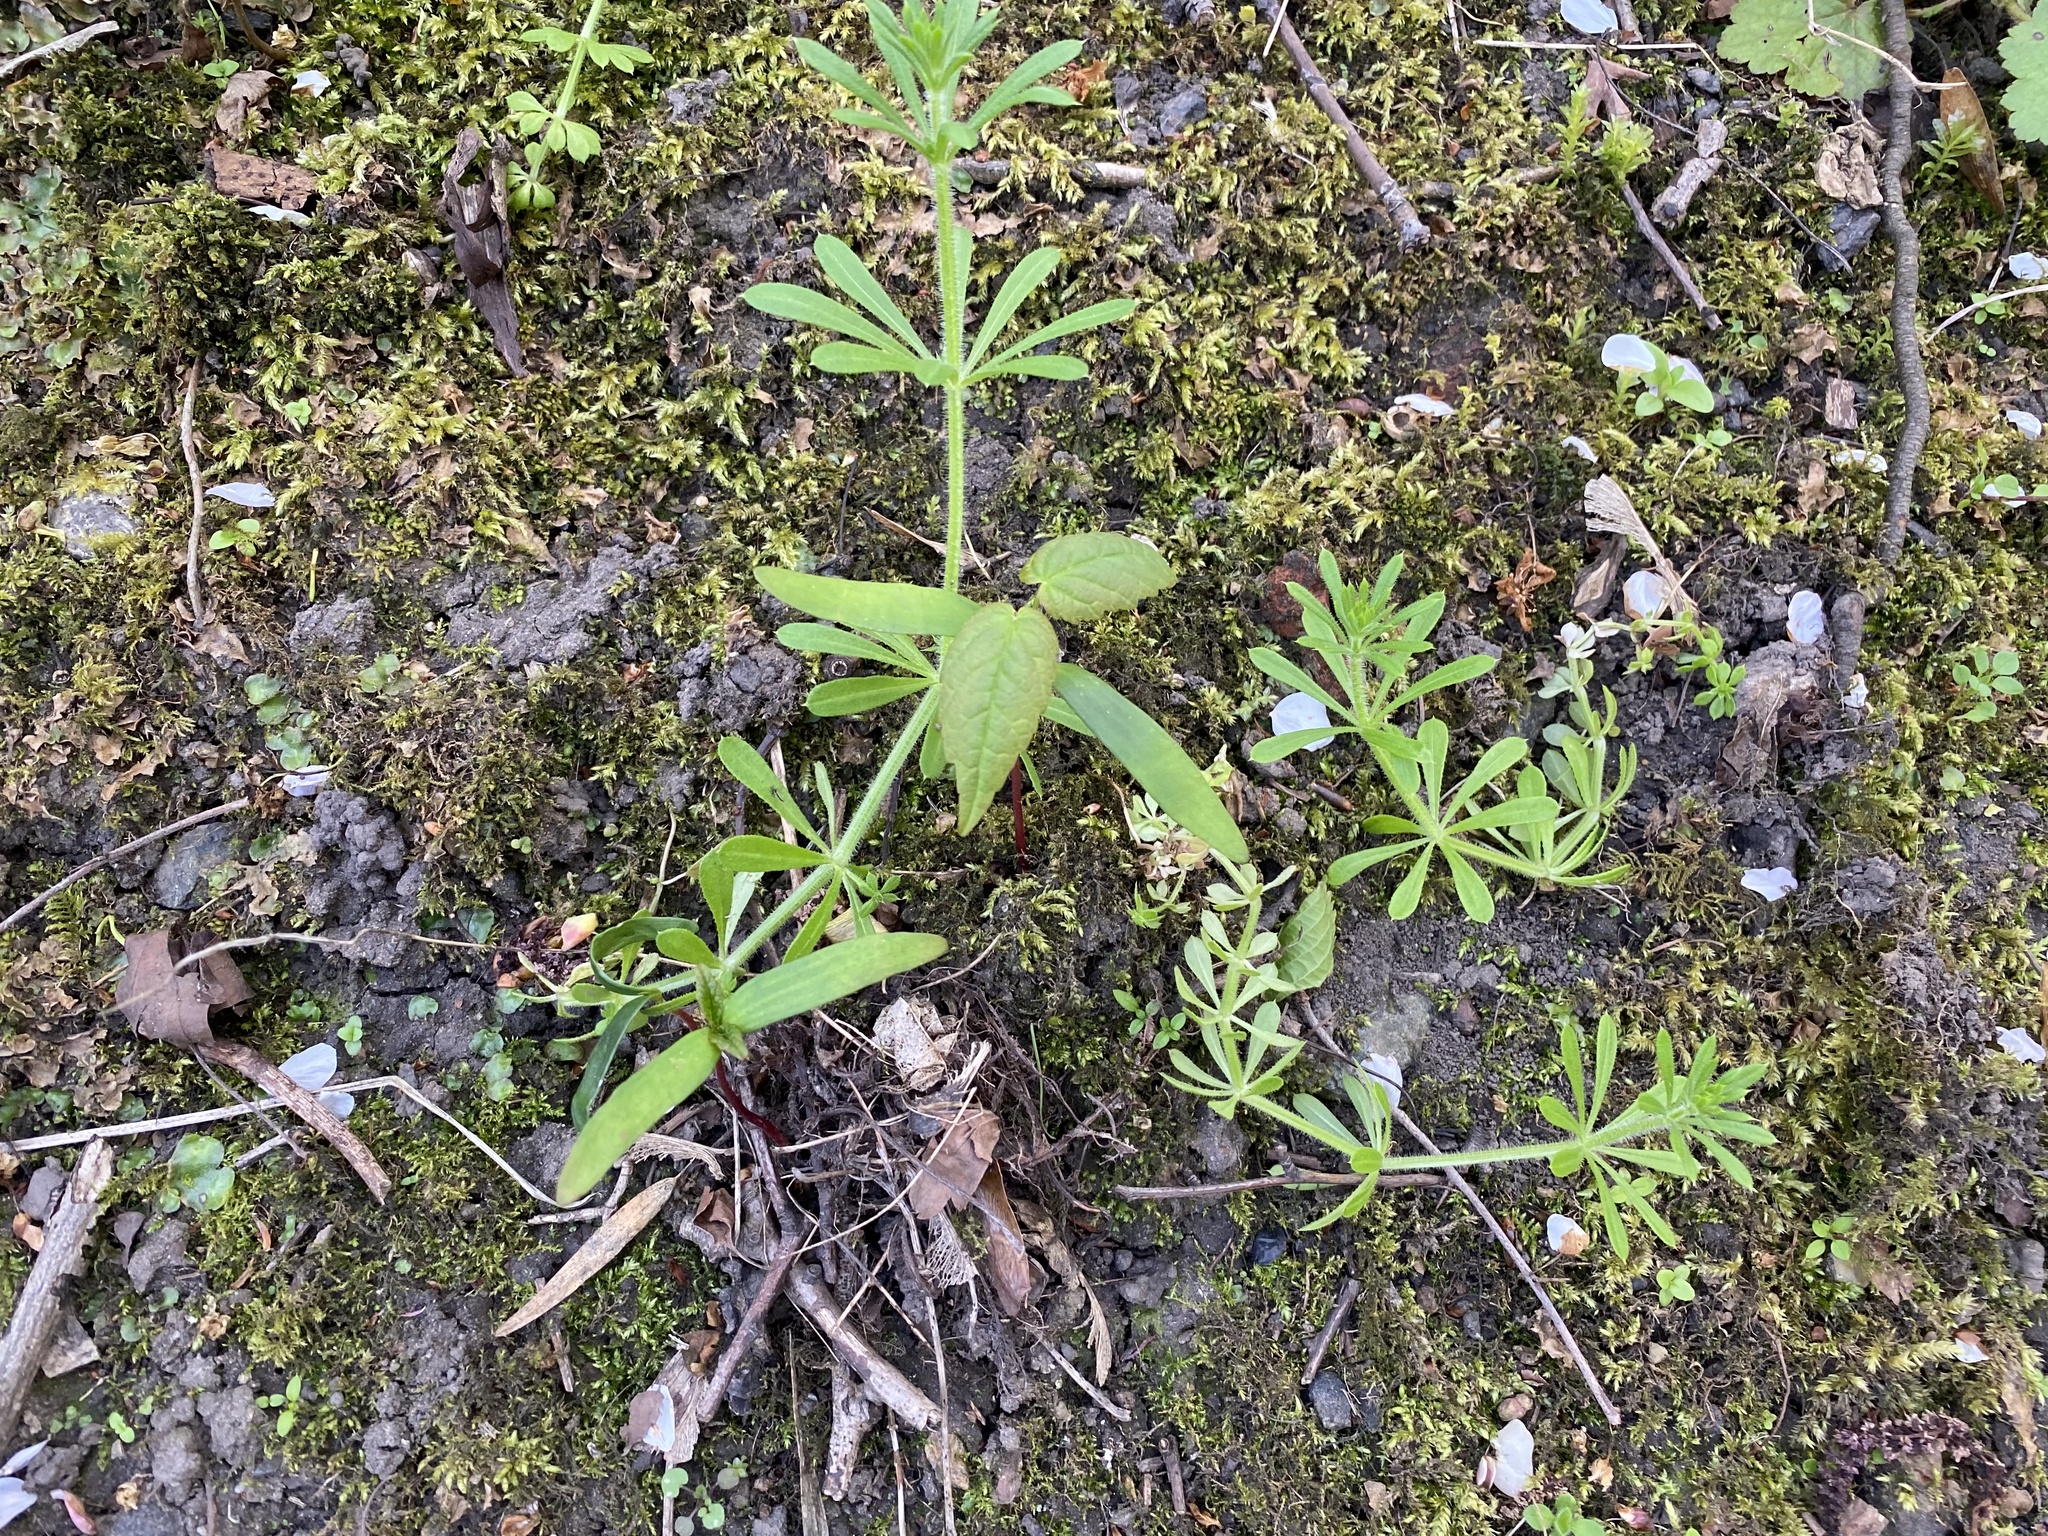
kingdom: Plantae
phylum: Tracheophyta
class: Magnoliopsida
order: Gentianales
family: Rubiaceae
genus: Galium
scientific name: Galium aparine
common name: Cleavers
